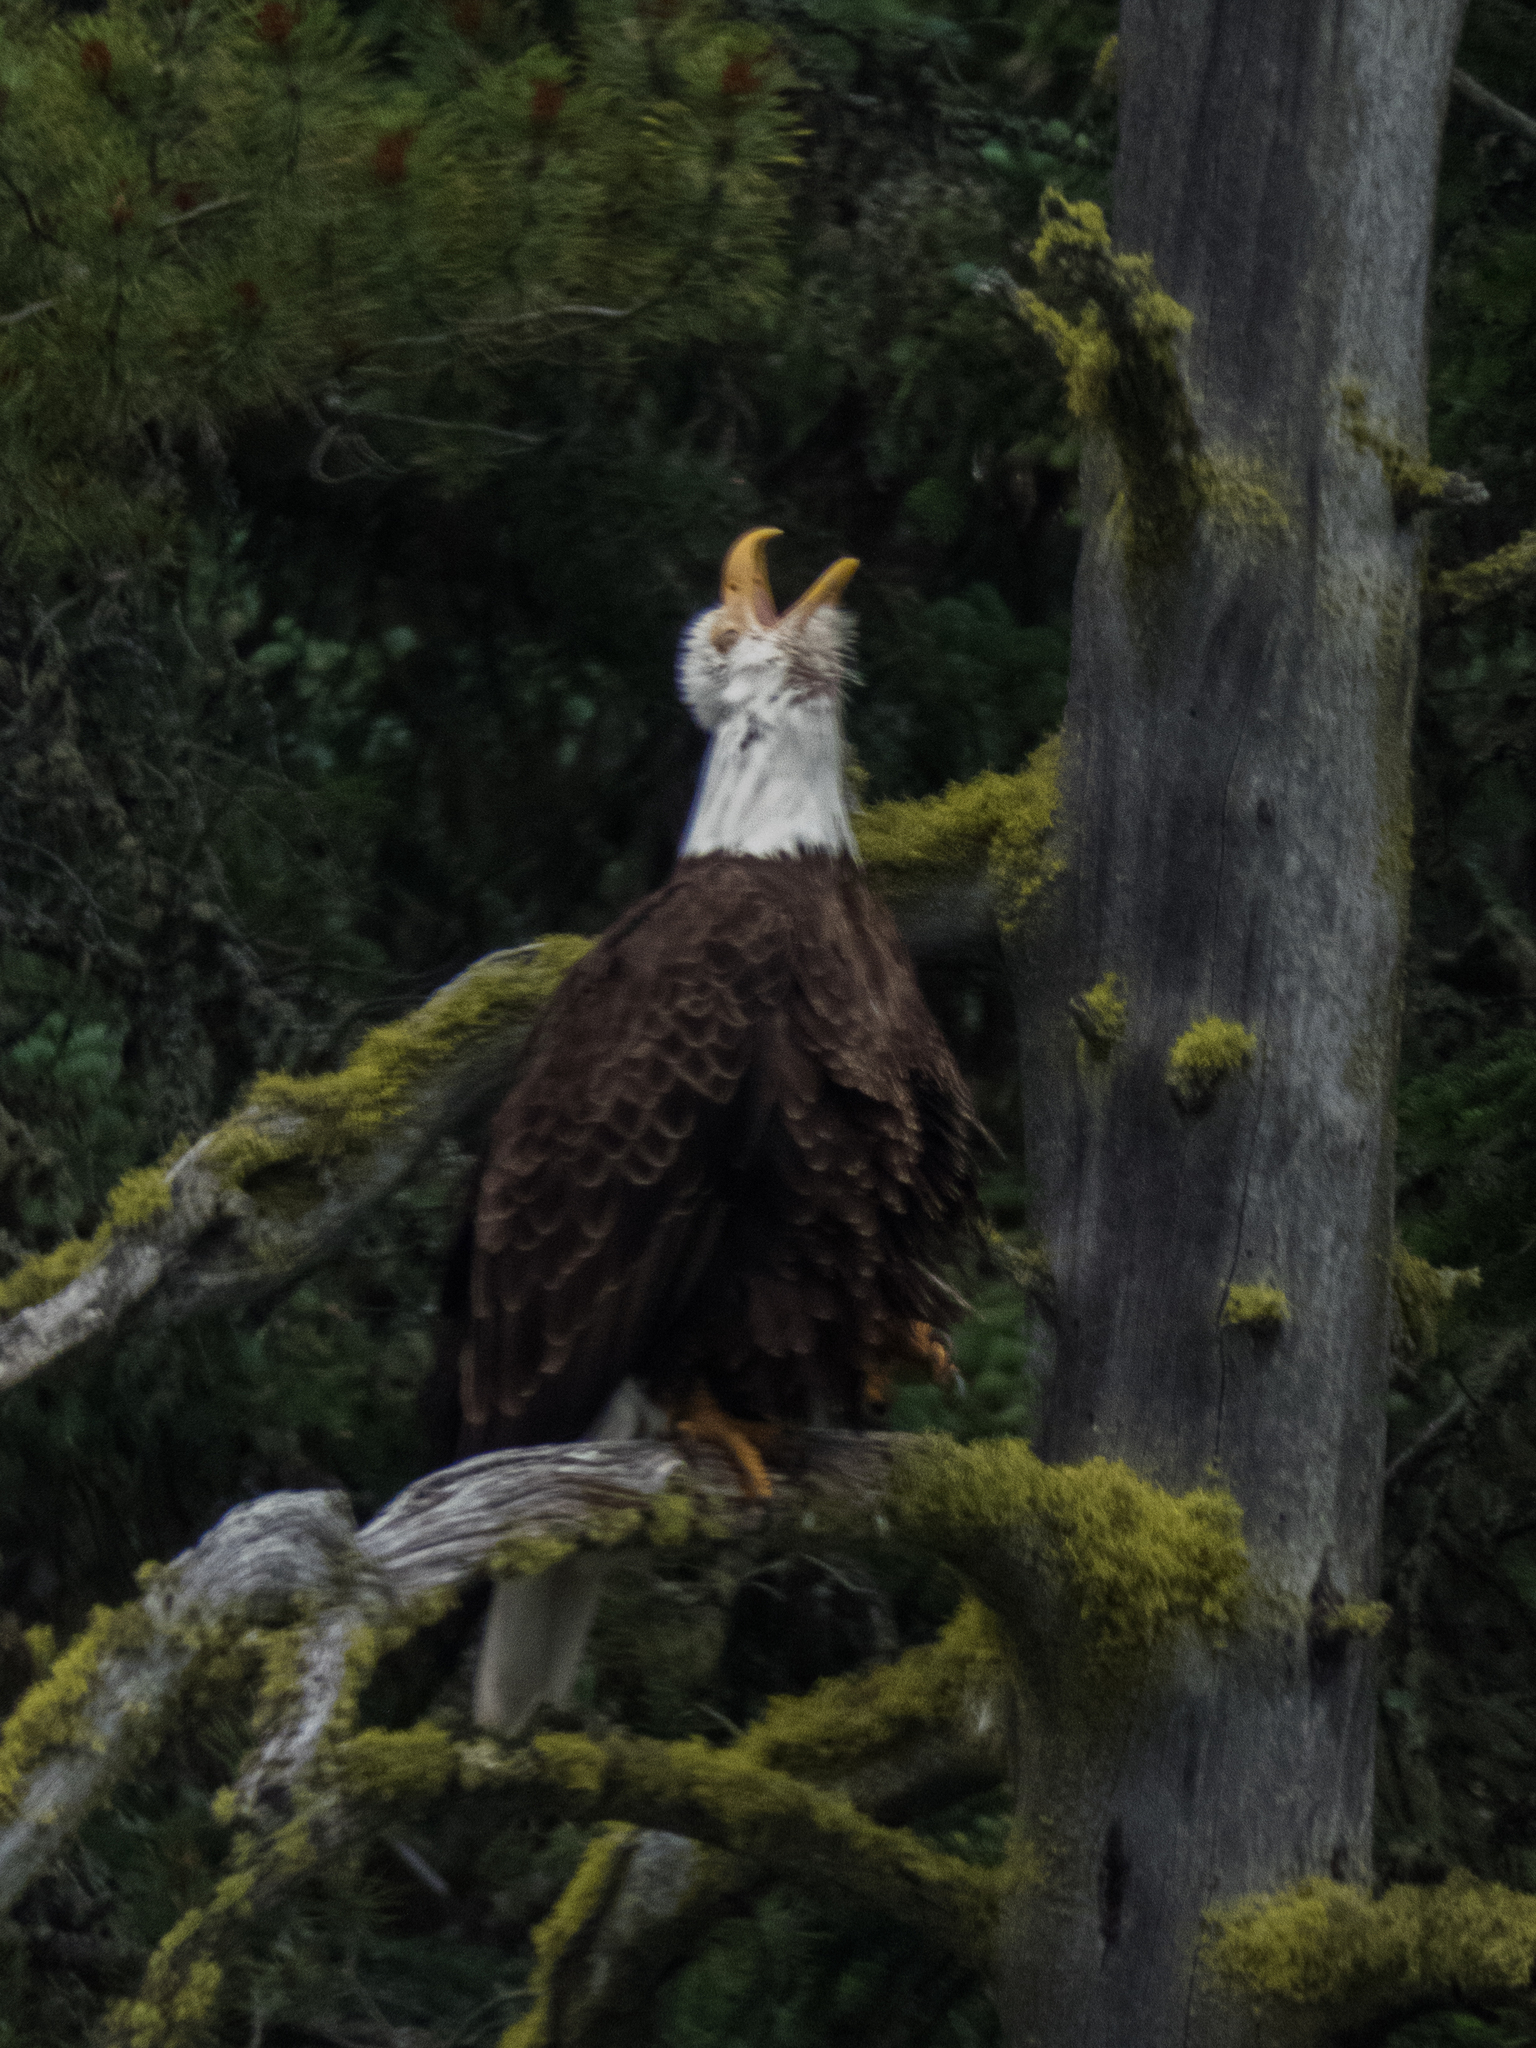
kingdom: Animalia
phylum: Chordata
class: Aves
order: Accipitriformes
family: Accipitridae
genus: Haliaeetus
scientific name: Haliaeetus leucocephalus
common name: Bald eagle
